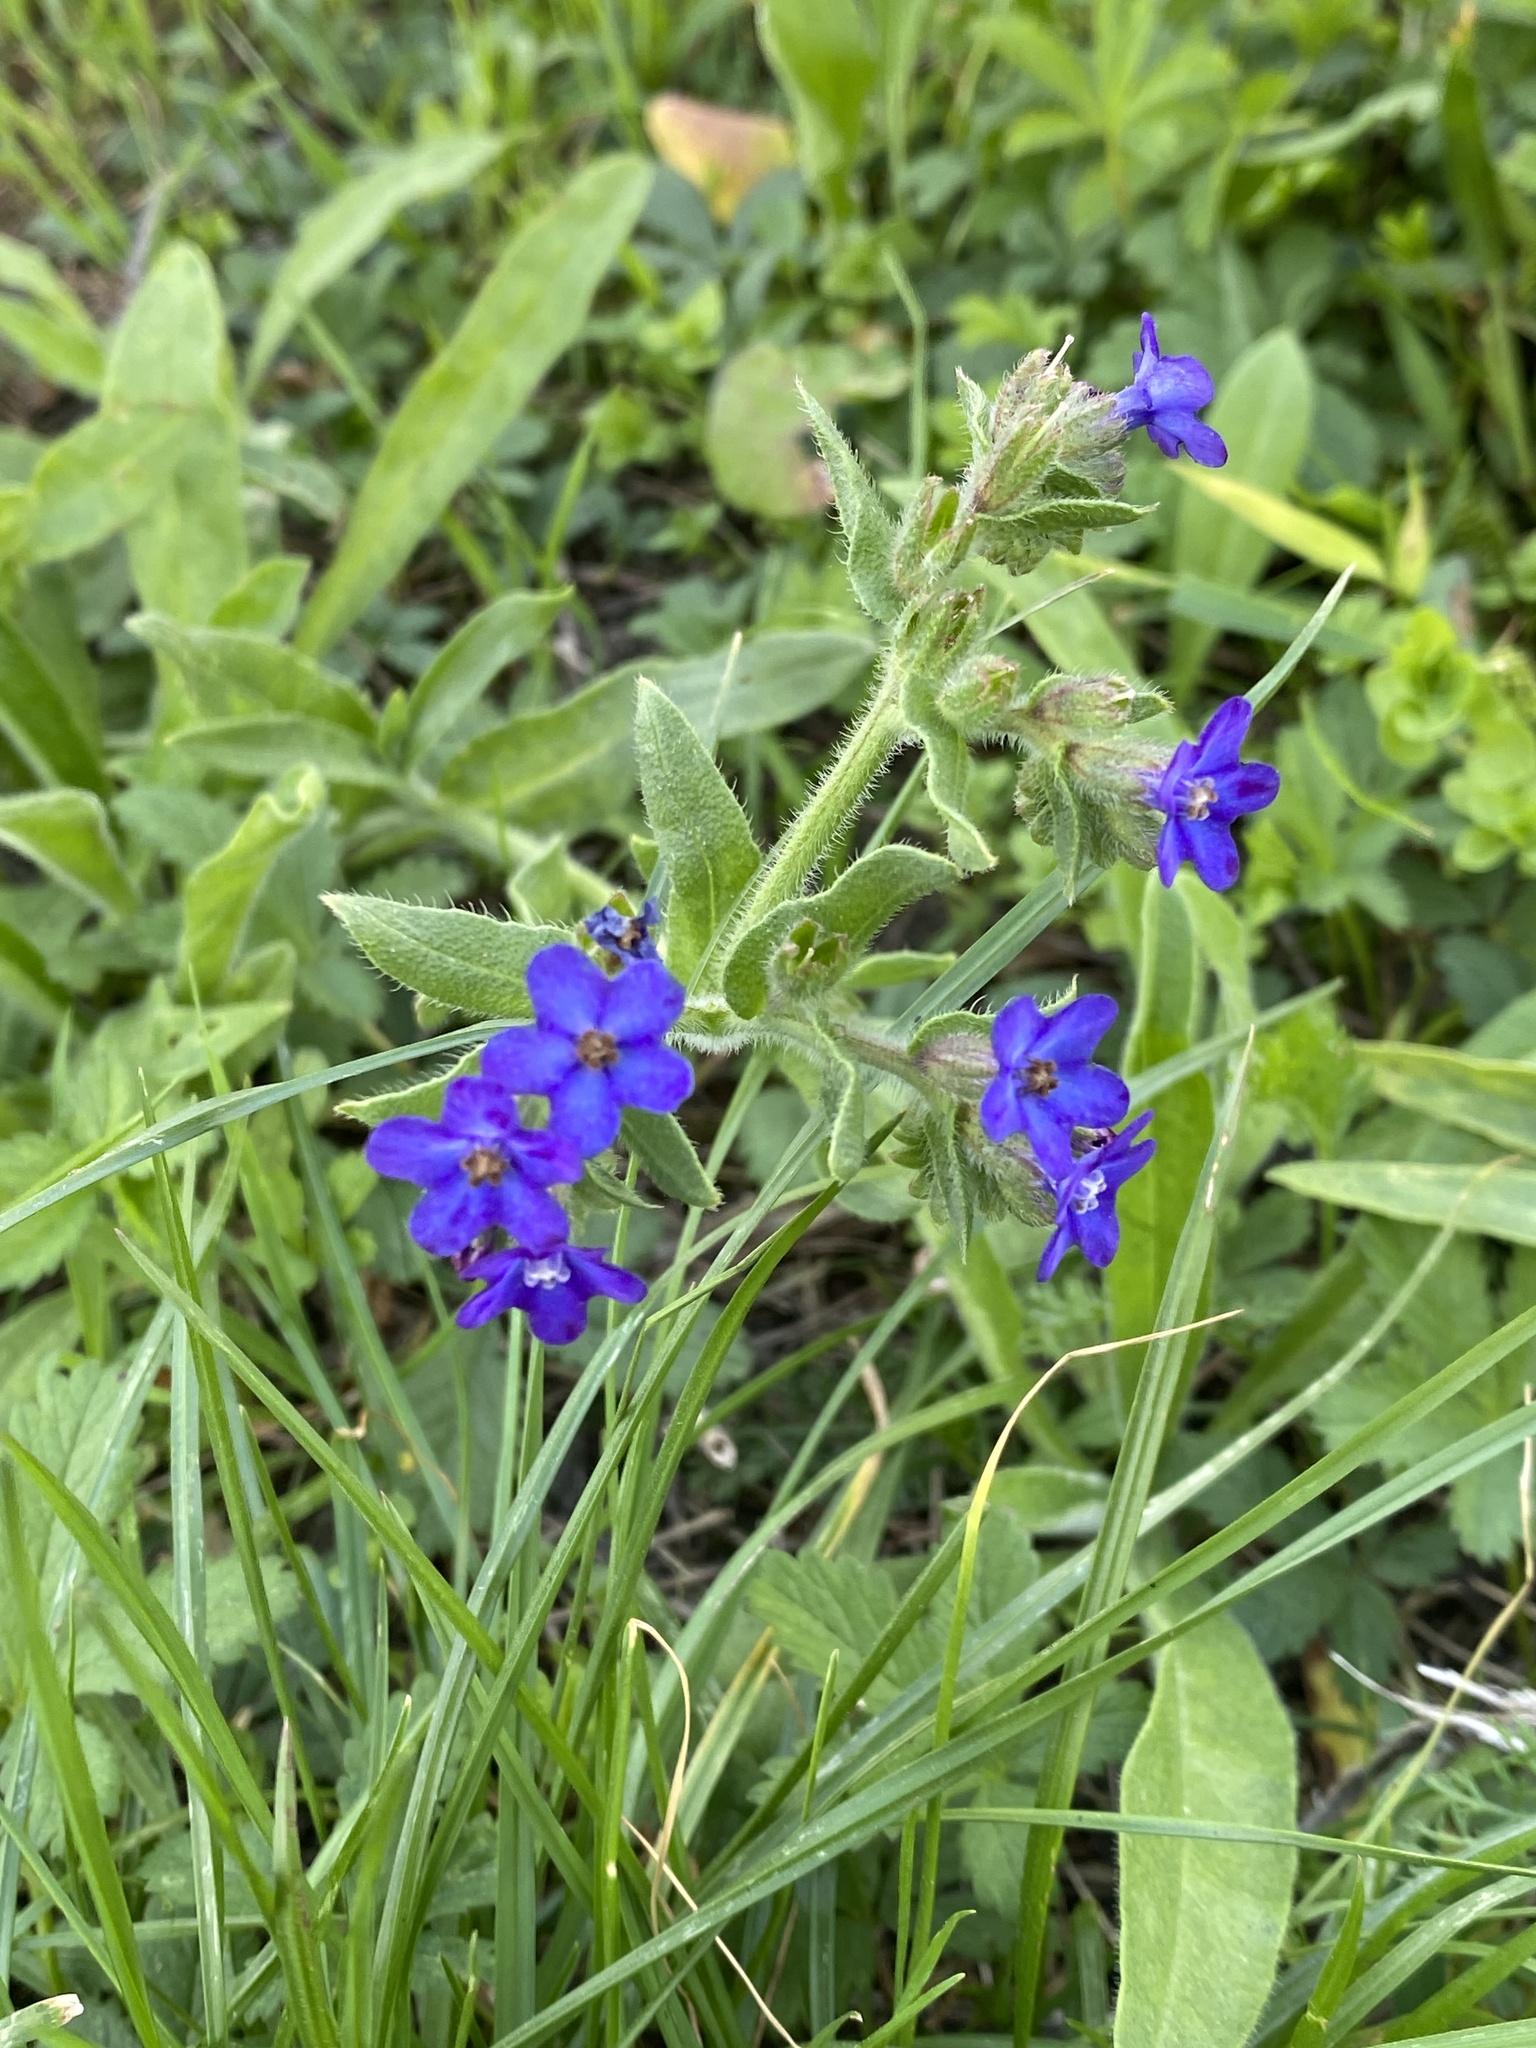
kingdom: Plantae
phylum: Tracheophyta
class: Magnoliopsida
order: Boraginales
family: Boraginaceae
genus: Anchusa
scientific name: Anchusa officinalis
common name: Alkanet
